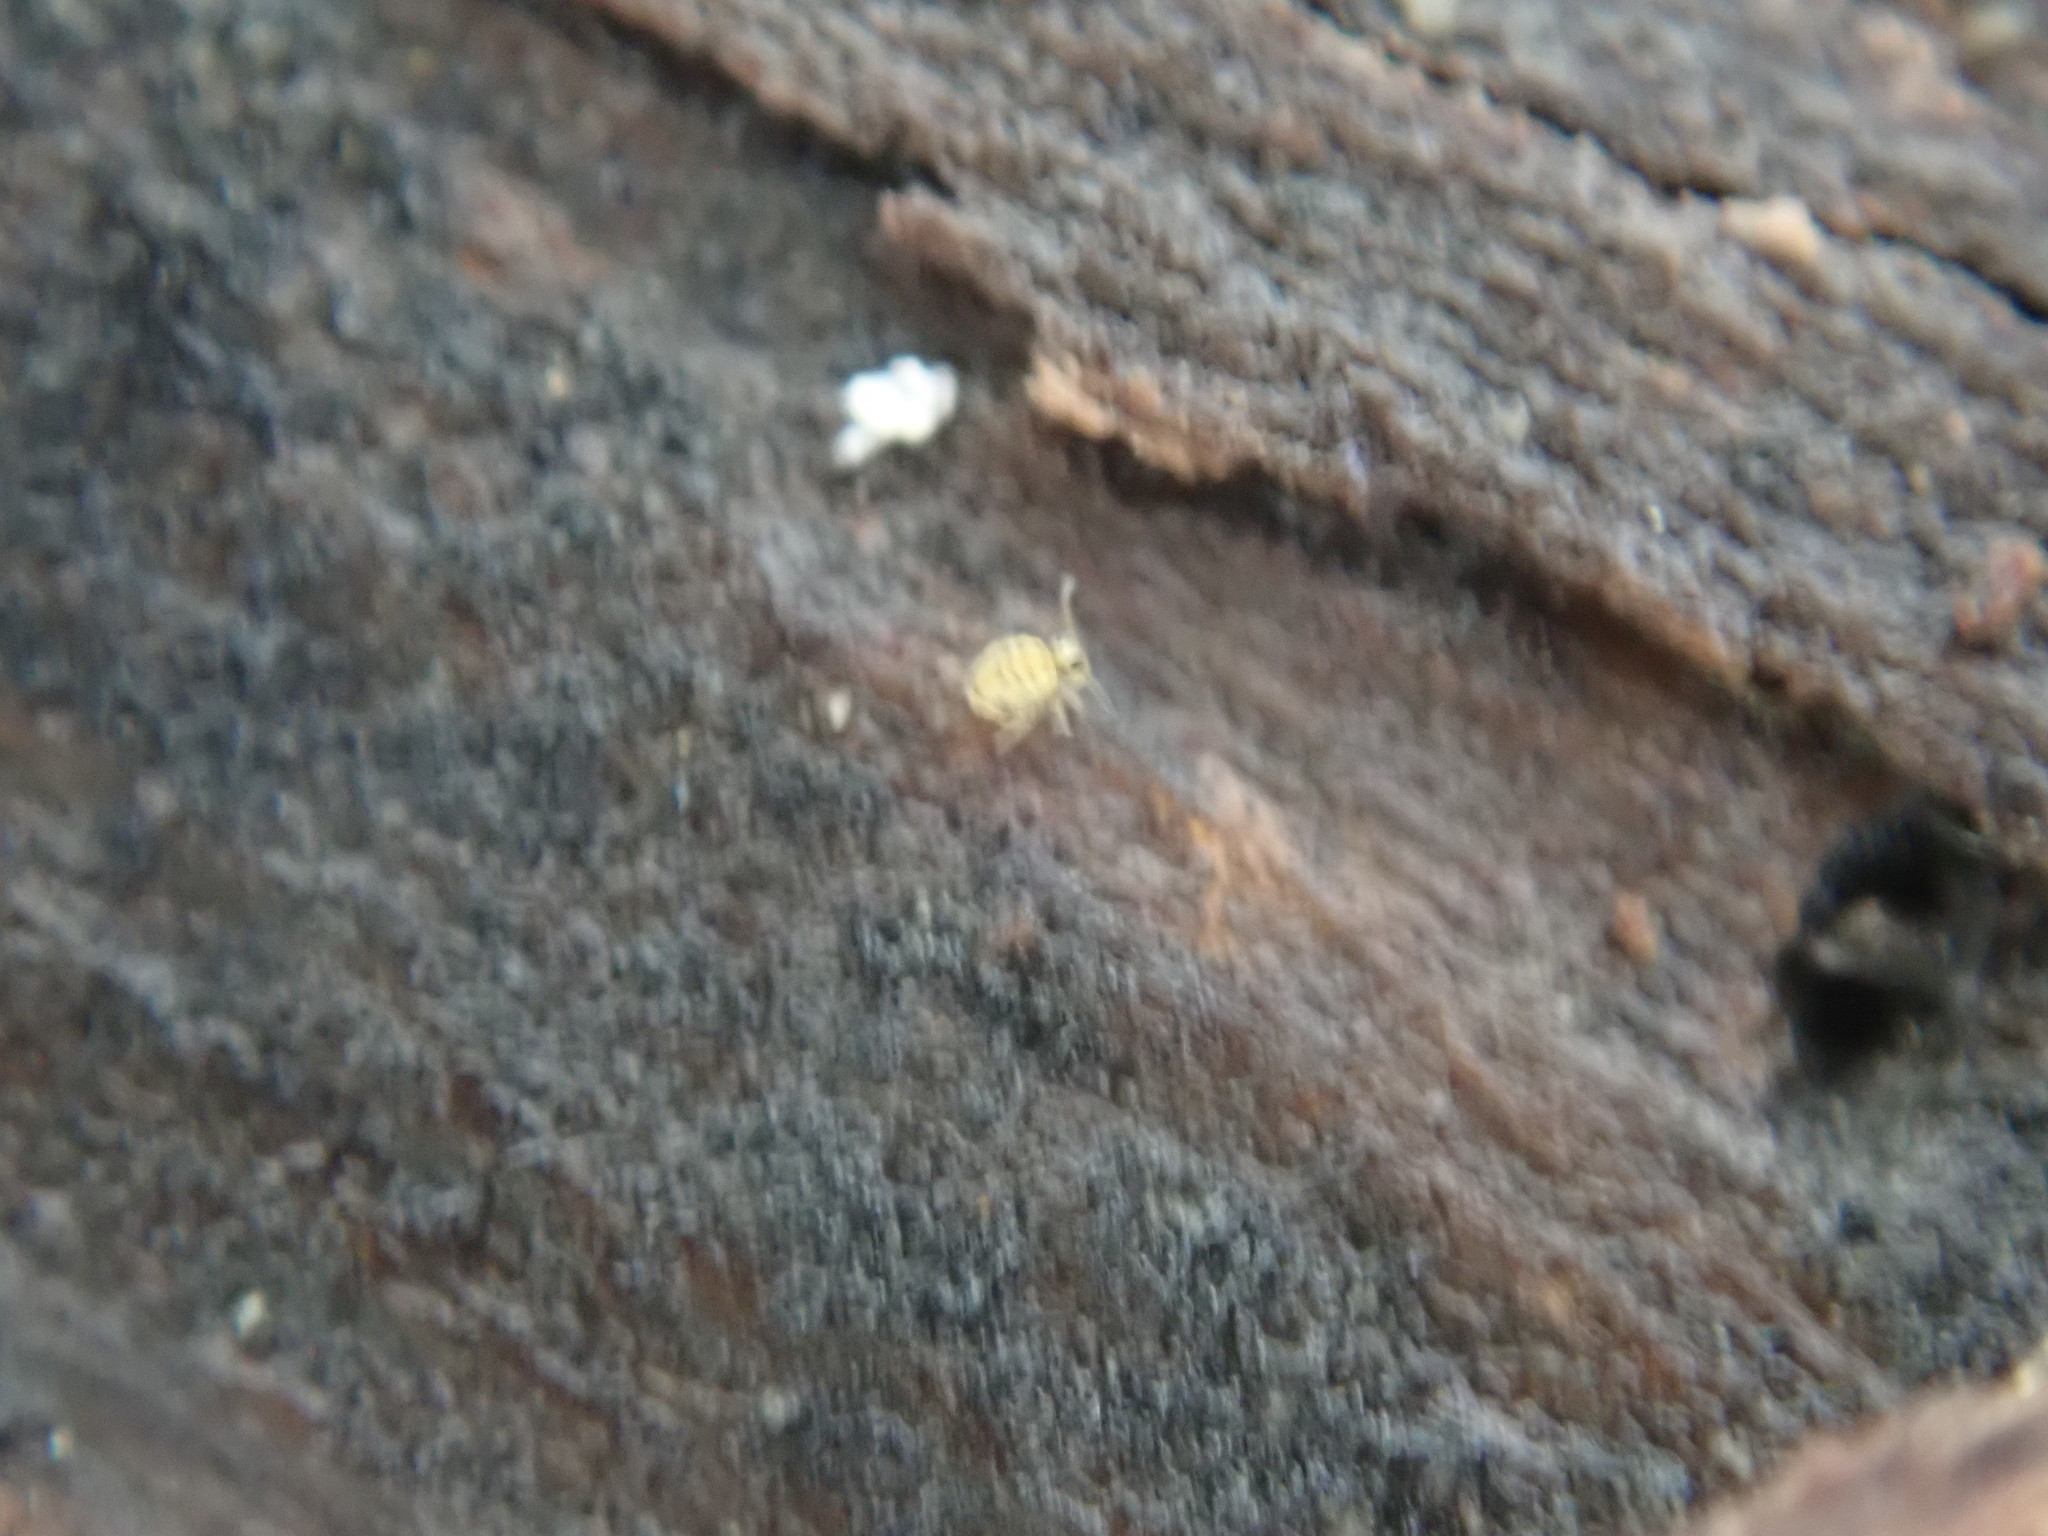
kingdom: Animalia
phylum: Arthropoda
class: Collembola
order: Symphypleona
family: Katiannidae
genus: Sminthurinus
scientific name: Sminthurinus henshawi
